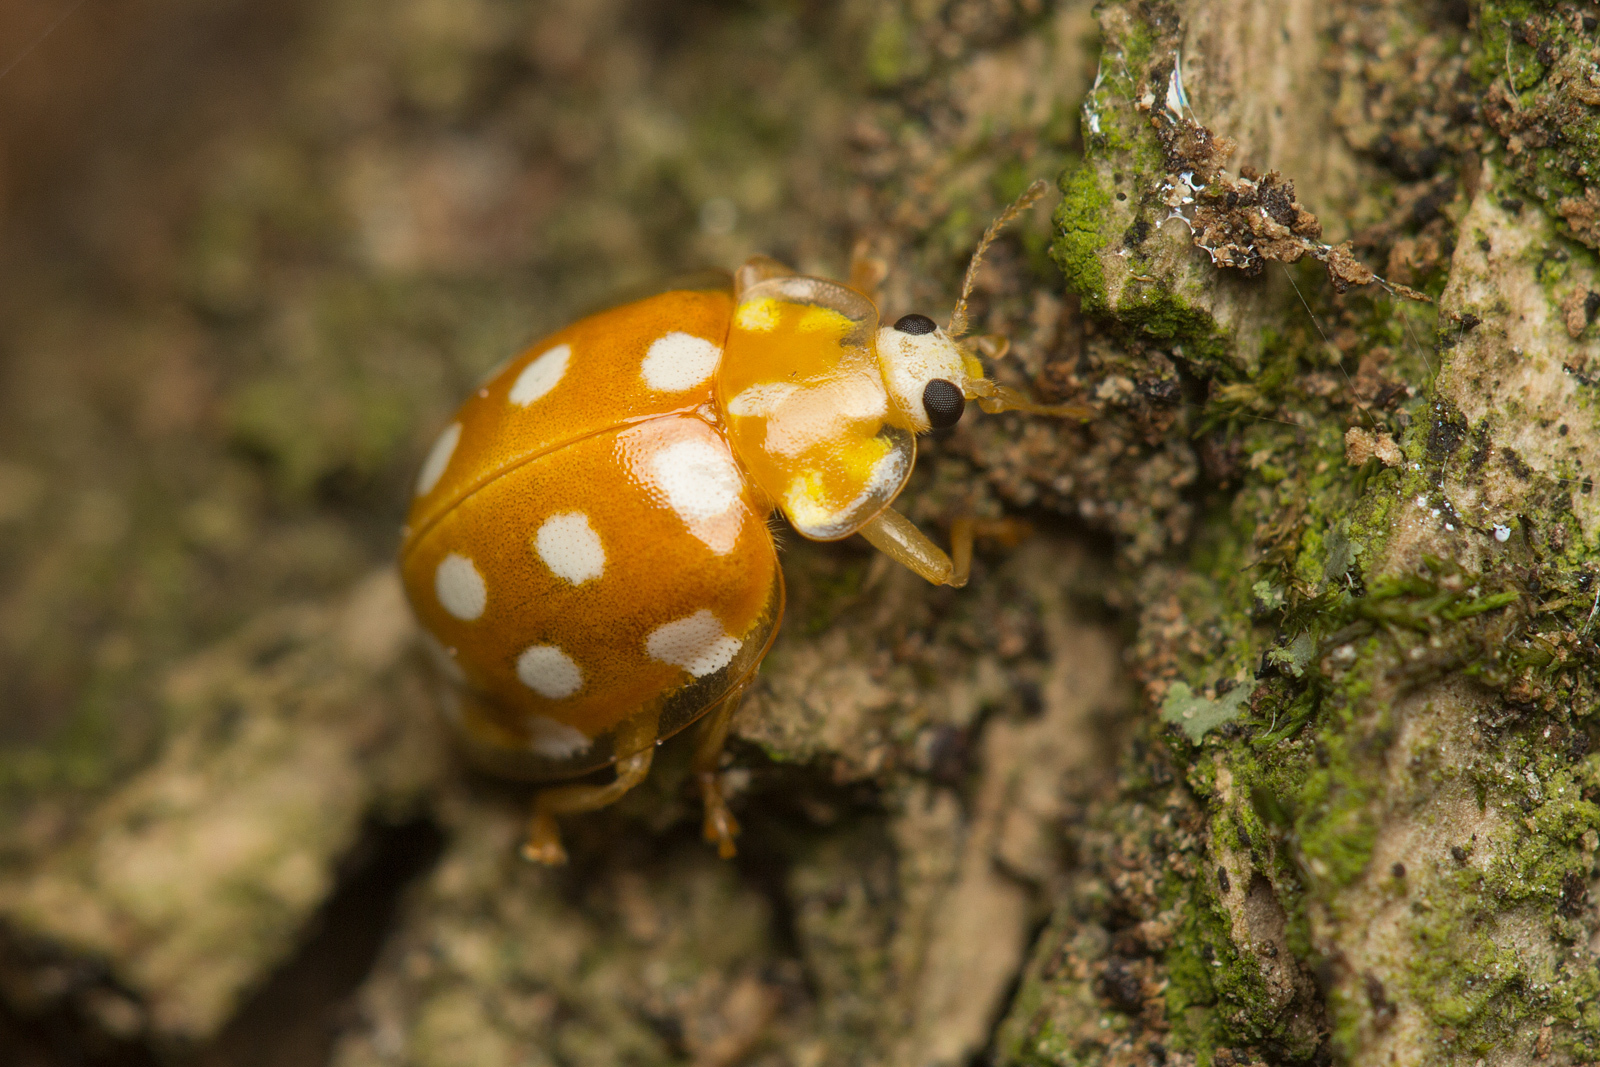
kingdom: Animalia
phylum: Arthropoda
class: Insecta
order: Coleoptera
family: Coccinellidae
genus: Halyzia
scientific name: Halyzia sedecimguttata
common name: Orange ladybird
